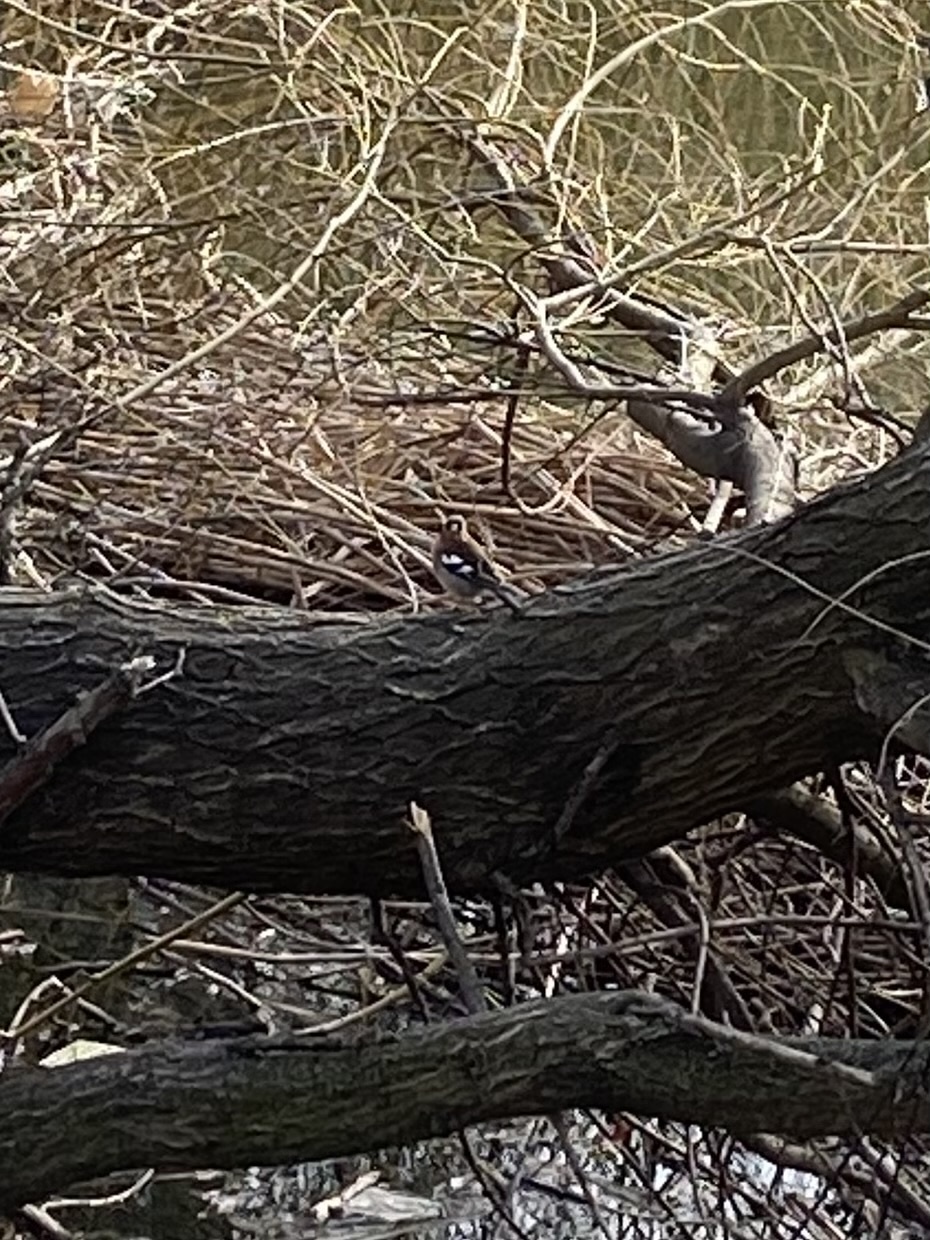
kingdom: Animalia
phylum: Chordata
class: Aves
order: Passeriformes
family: Fringillidae
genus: Fringilla
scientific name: Fringilla coelebs
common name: Common chaffinch
